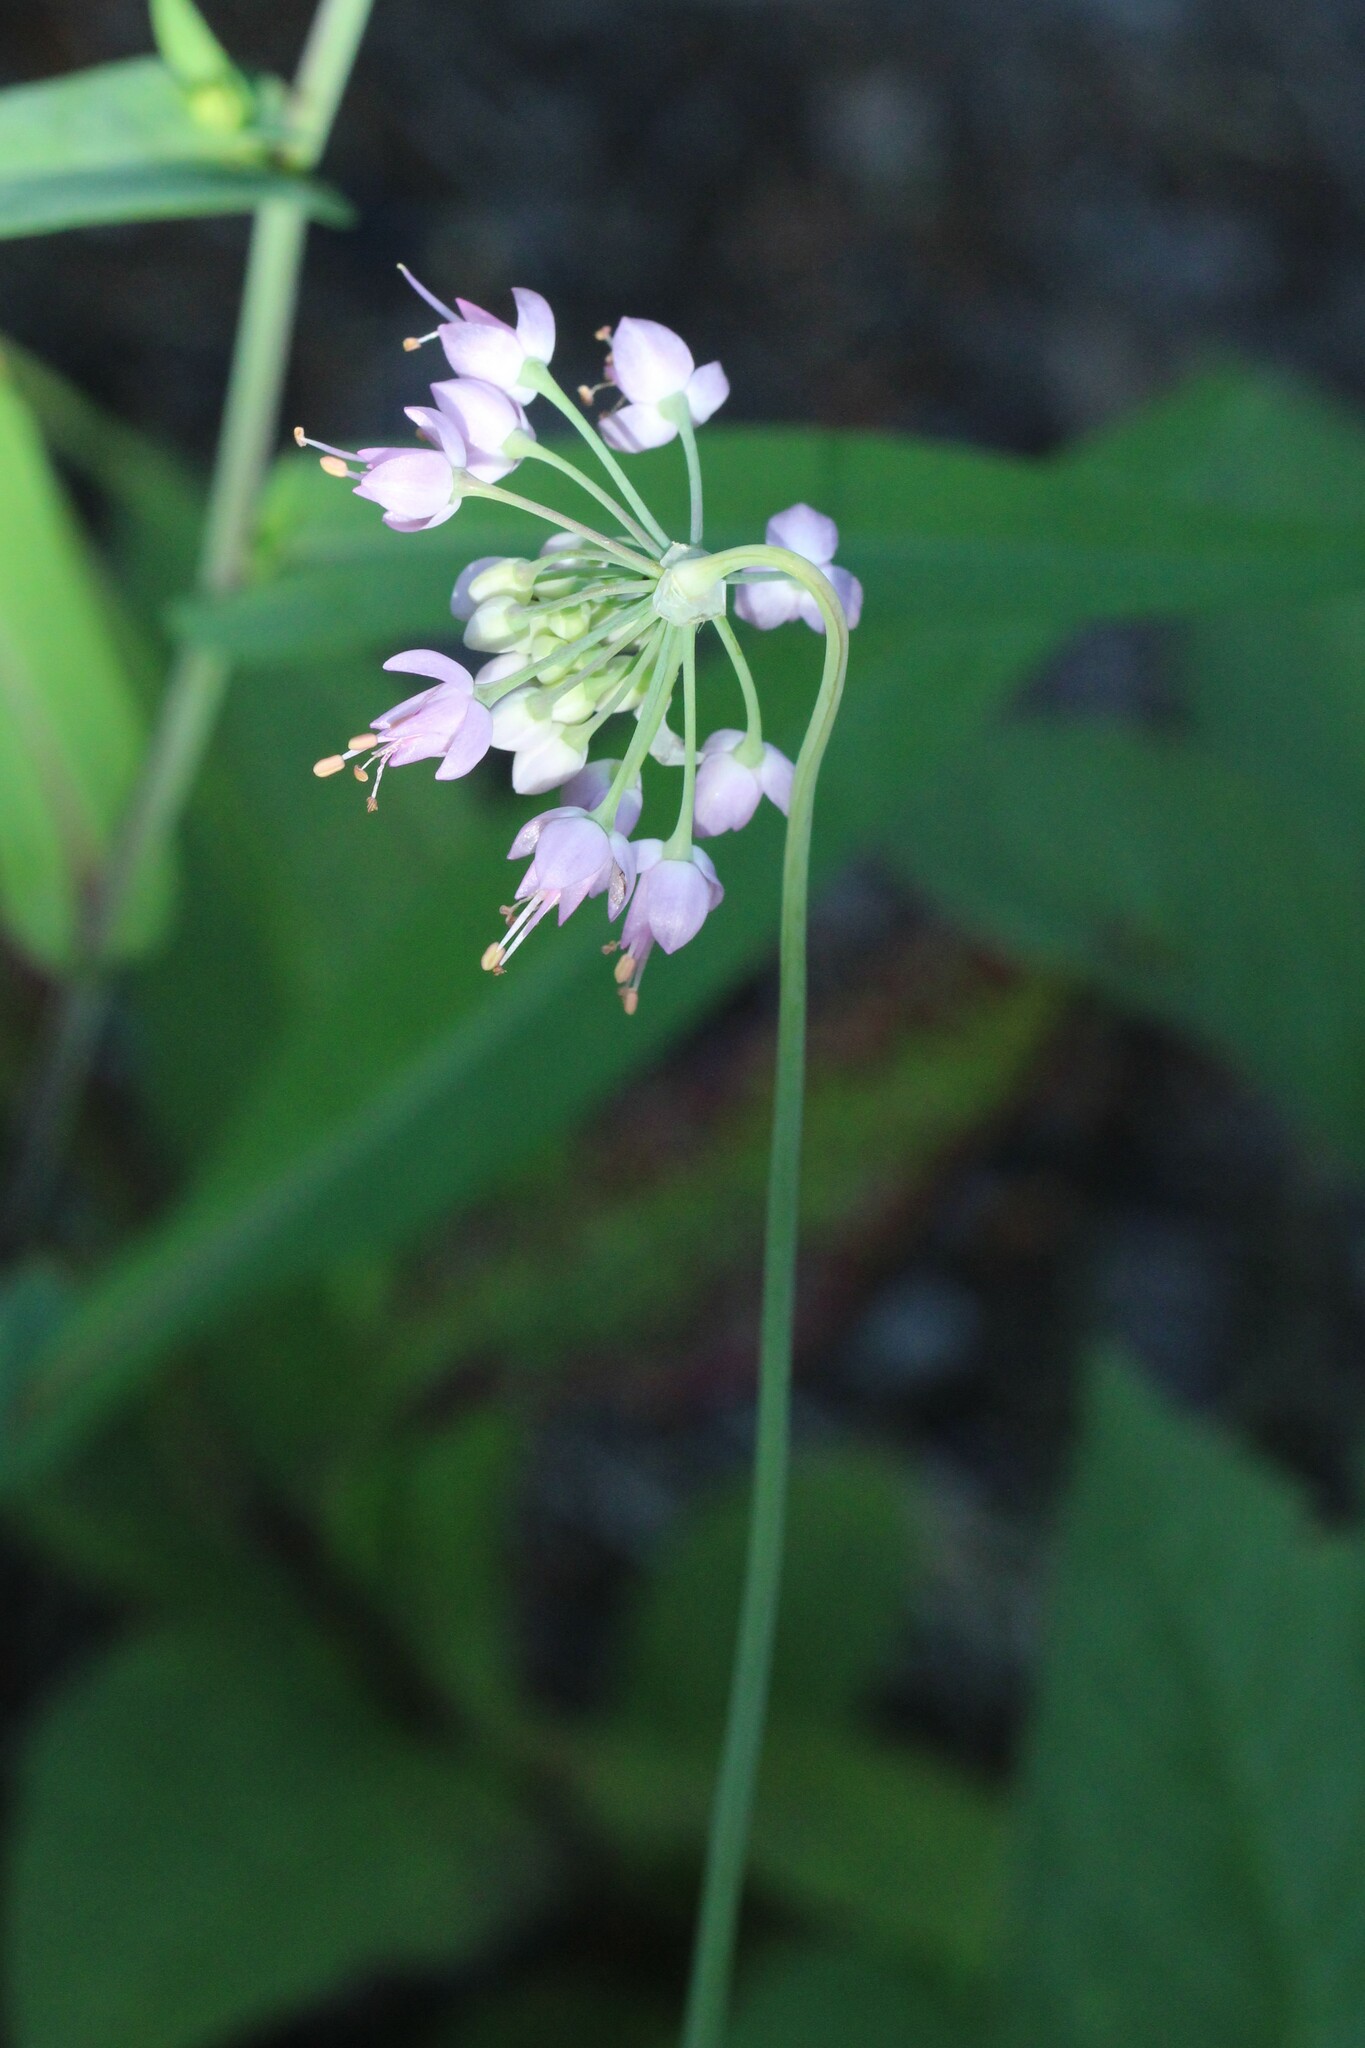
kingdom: Plantae
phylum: Tracheophyta
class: Liliopsida
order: Asparagales
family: Amaryllidaceae
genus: Allium
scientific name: Allium cernuum
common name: Nodding onion
